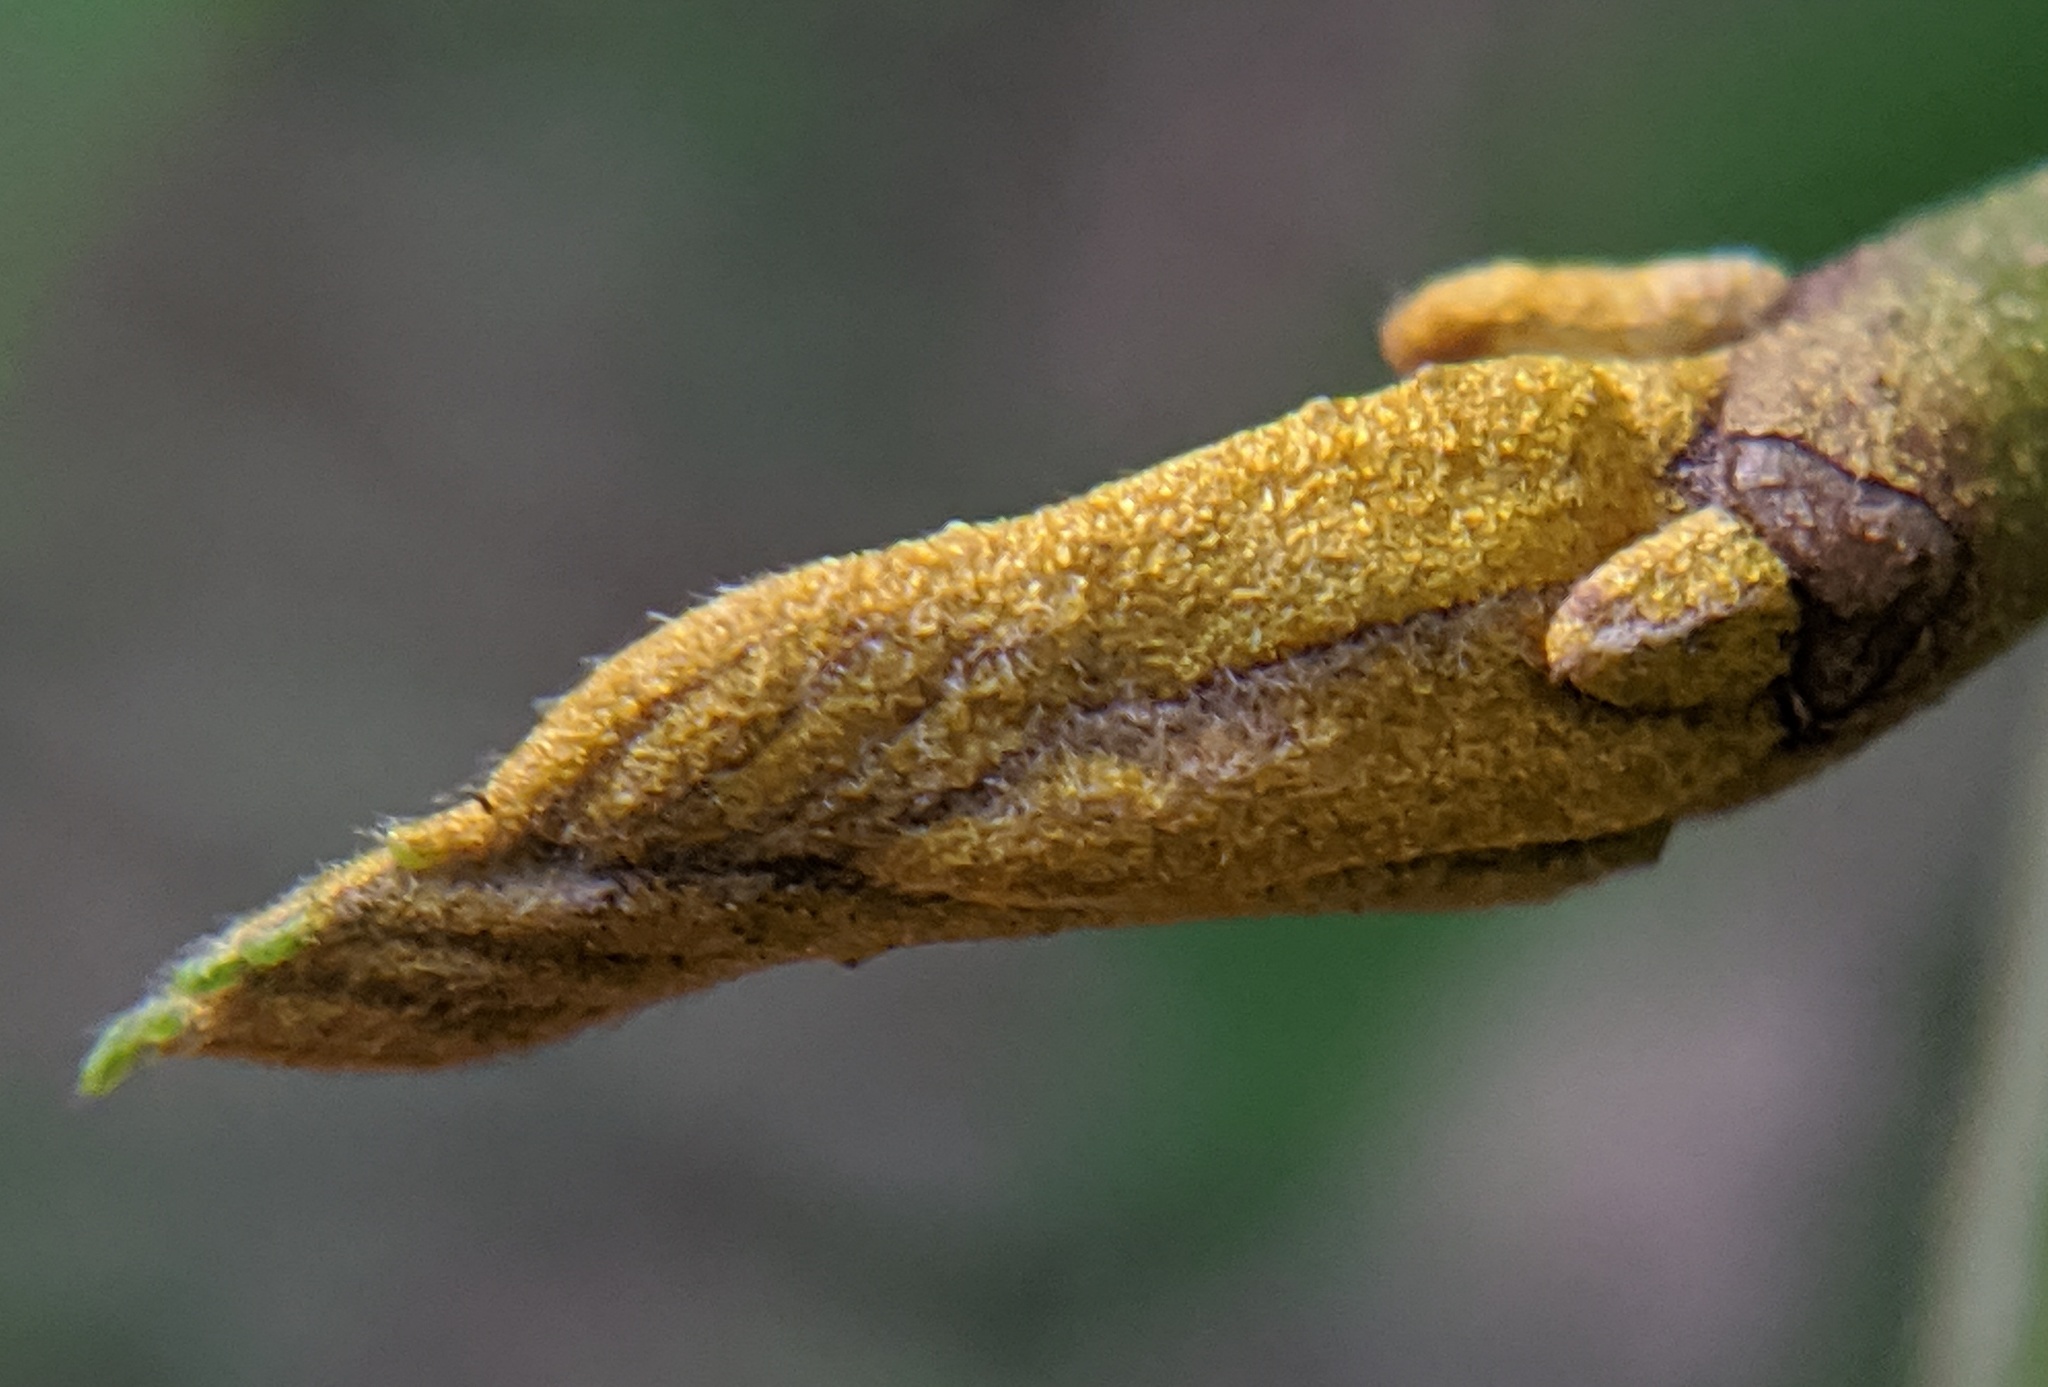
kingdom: Plantae
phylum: Tracheophyta
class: Magnoliopsida
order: Fagales
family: Juglandaceae
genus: Carya
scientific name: Carya cordiformis
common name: Bitternut hickory
